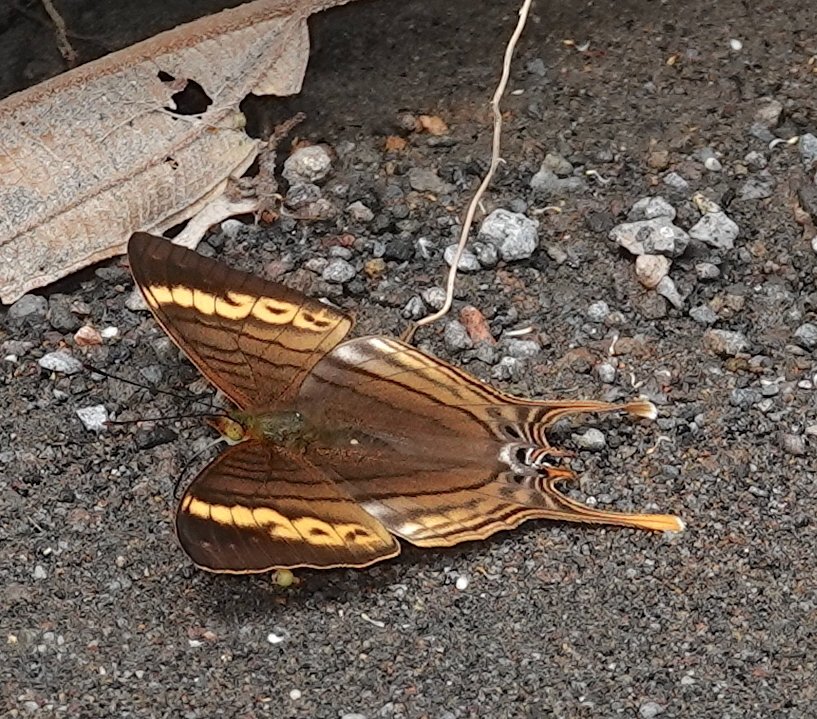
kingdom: Animalia
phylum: Arthropoda
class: Insecta
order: Lepidoptera
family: Nymphalidae
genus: Marpesia
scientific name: Marpesia corinna
